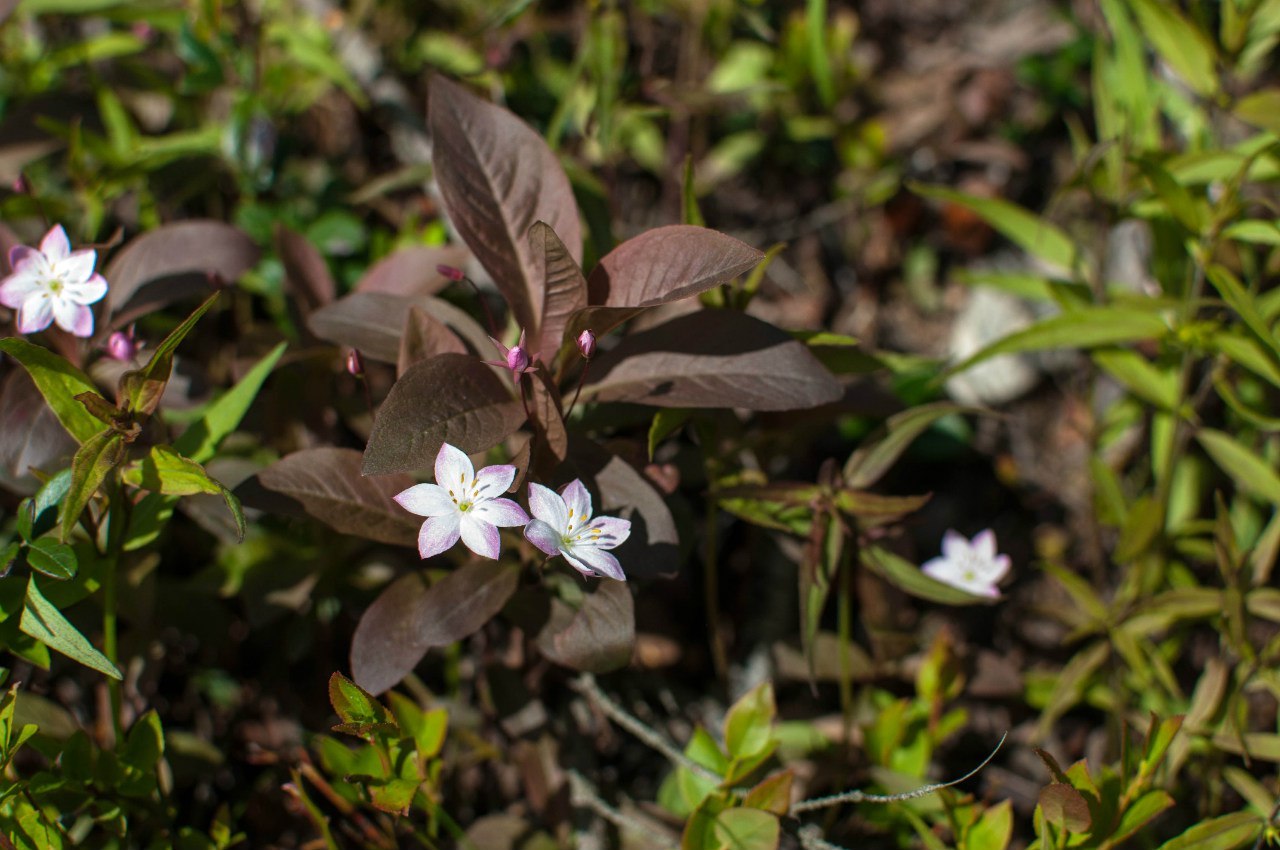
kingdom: Plantae
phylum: Tracheophyta
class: Magnoliopsida
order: Ericales
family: Primulaceae
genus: Lysimachia
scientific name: Lysimachia europaea
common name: Arctic starflower
